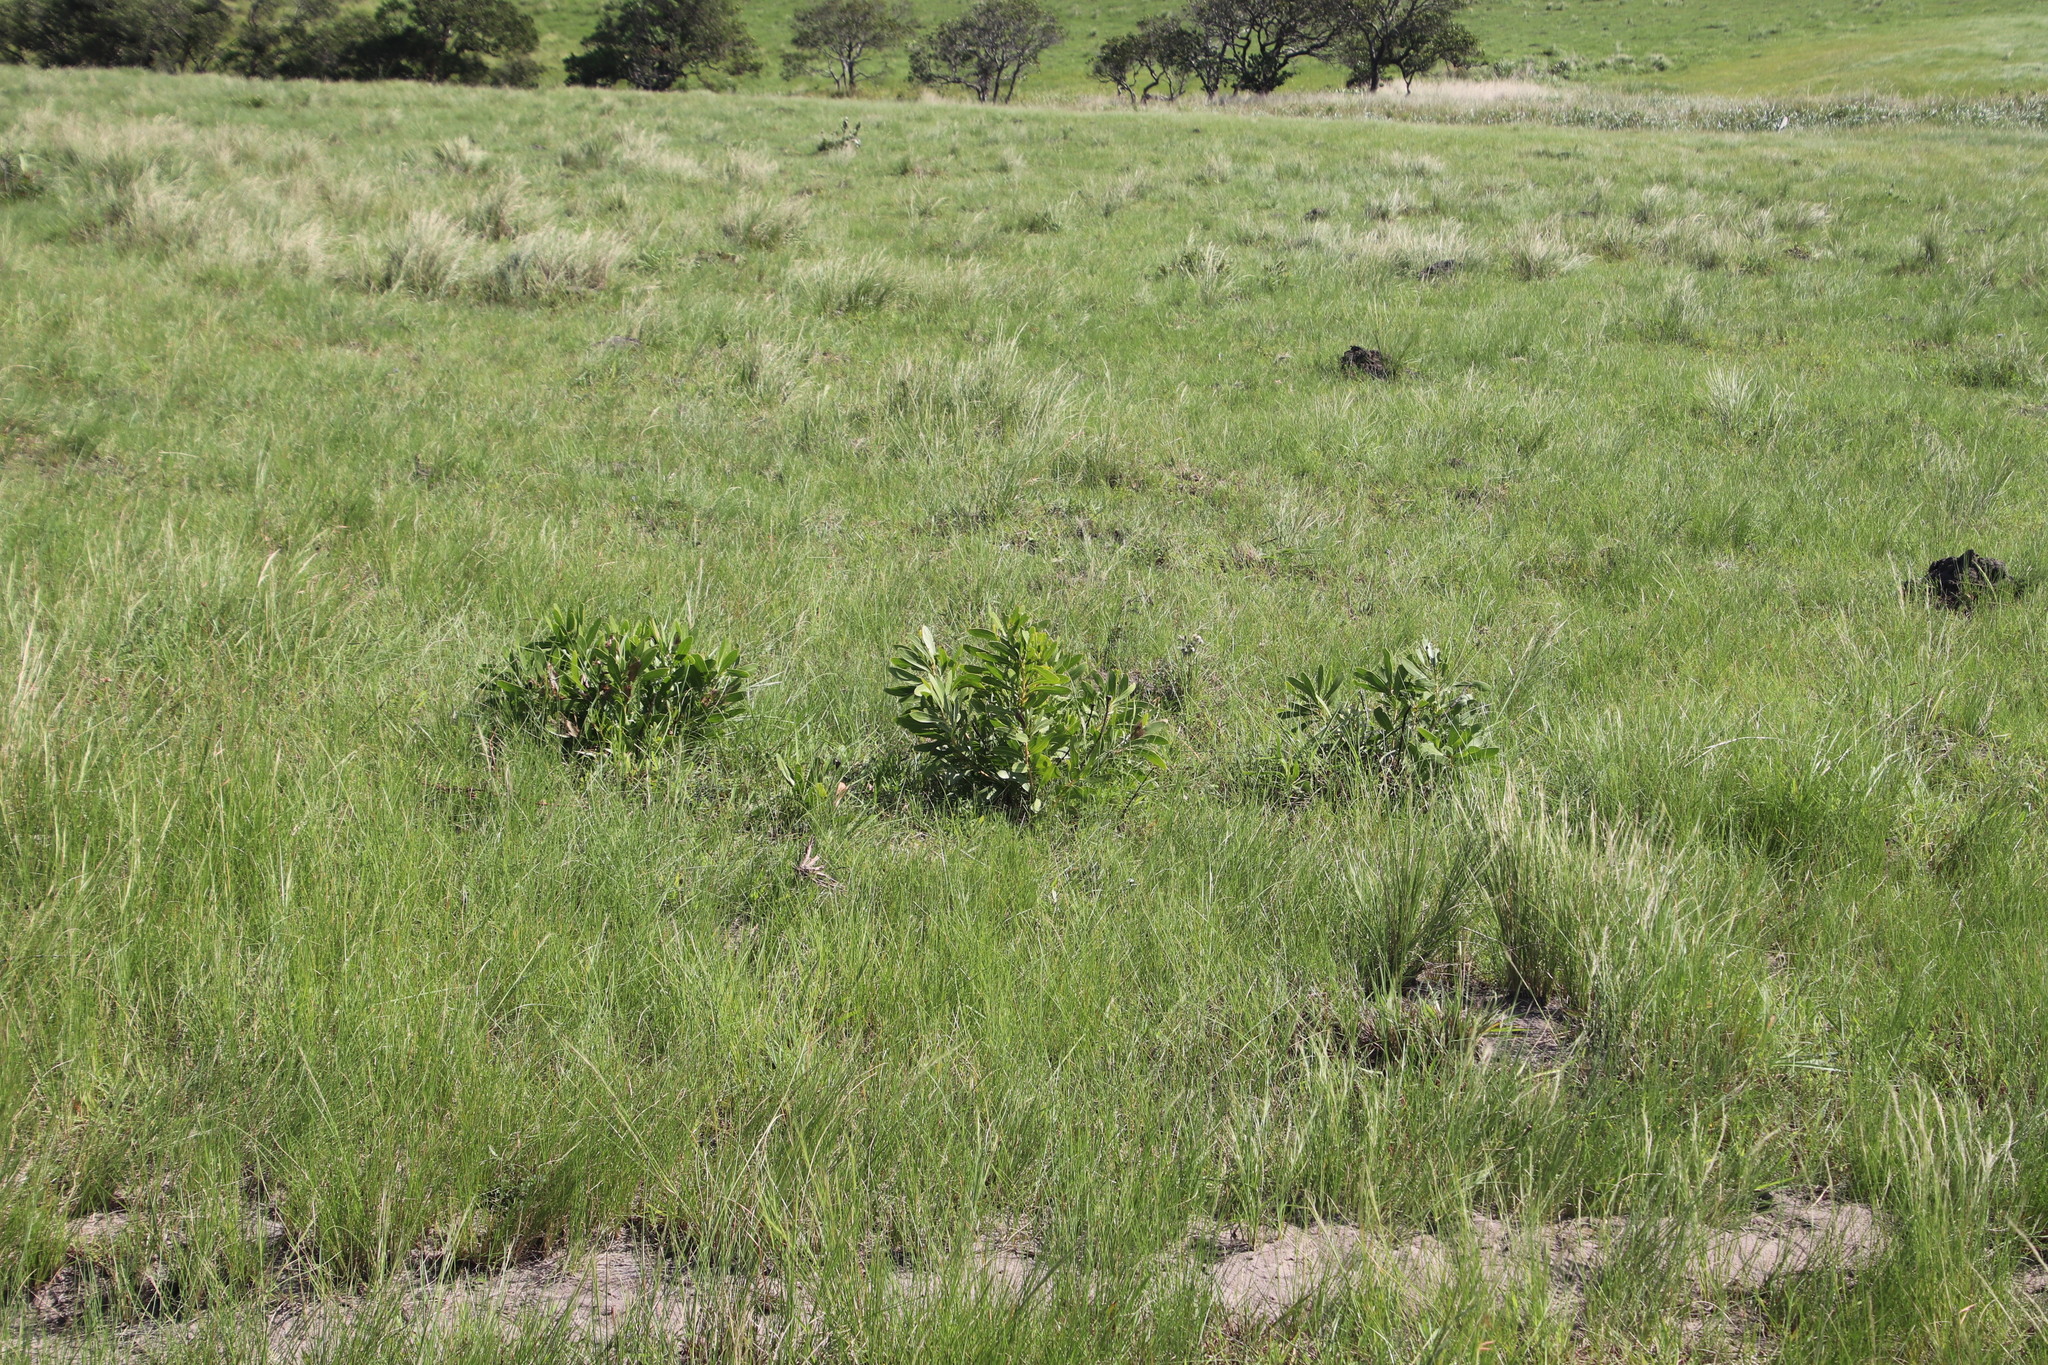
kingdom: Plantae
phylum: Tracheophyta
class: Magnoliopsida
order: Proteales
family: Proteaceae
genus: Protea
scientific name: Protea simplex
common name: Dwarf grassveld sugarbush
